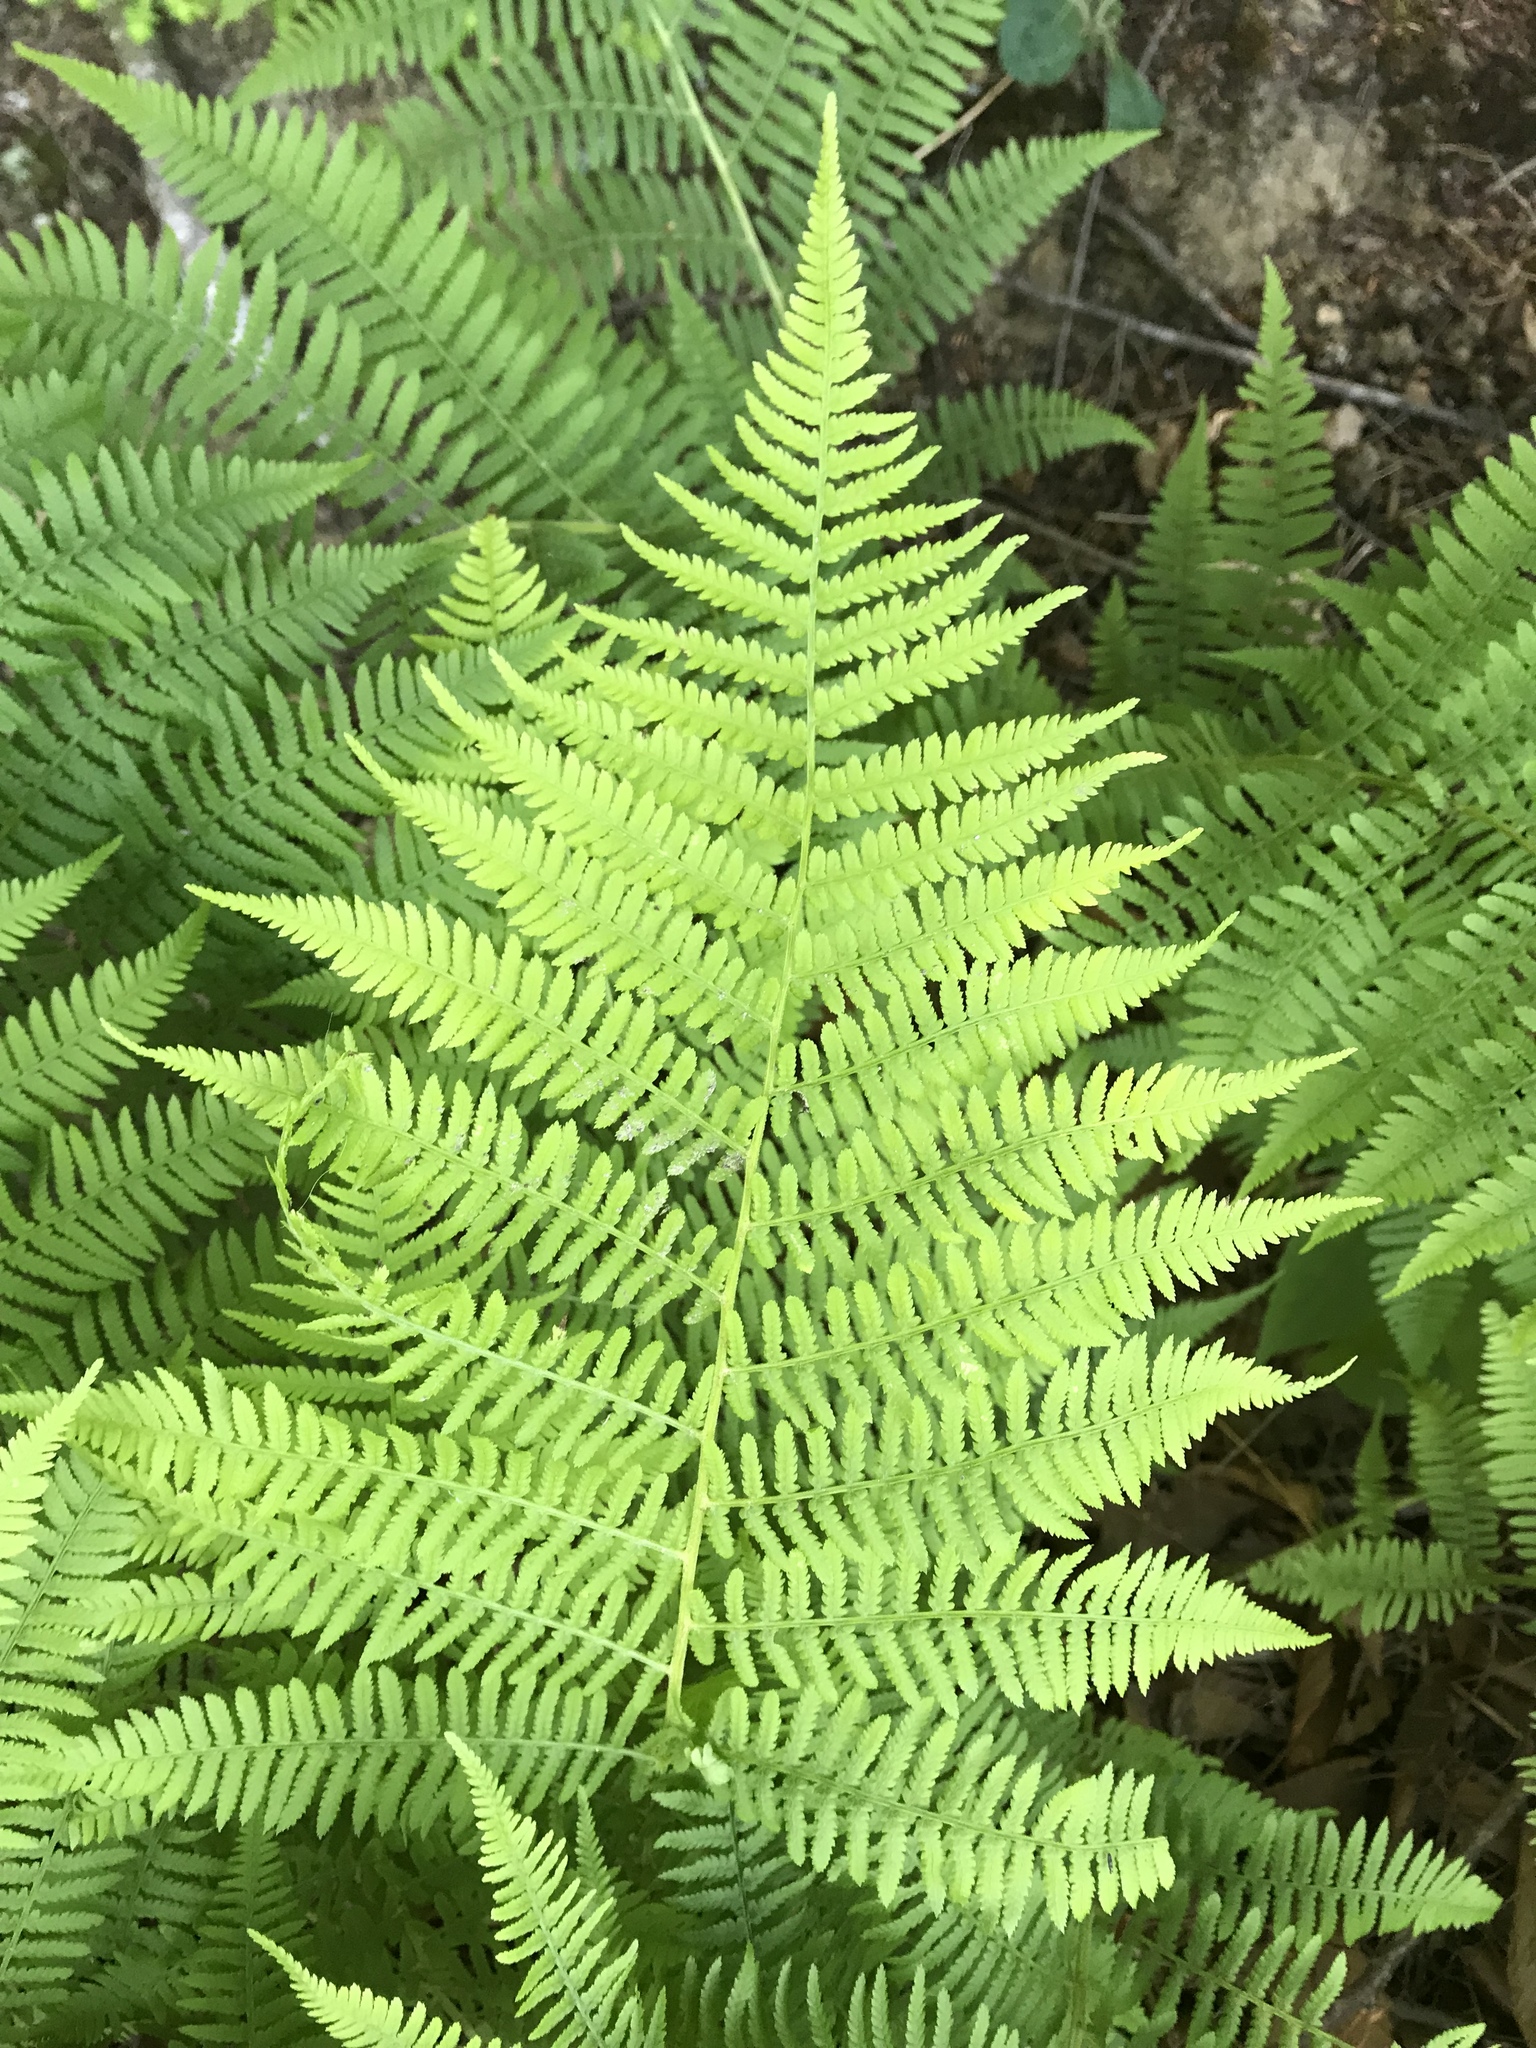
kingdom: Plantae
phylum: Tracheophyta
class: Polypodiopsida
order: Polypodiales
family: Athyriaceae
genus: Athyrium
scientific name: Athyrium angustum
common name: Northern lady fern
